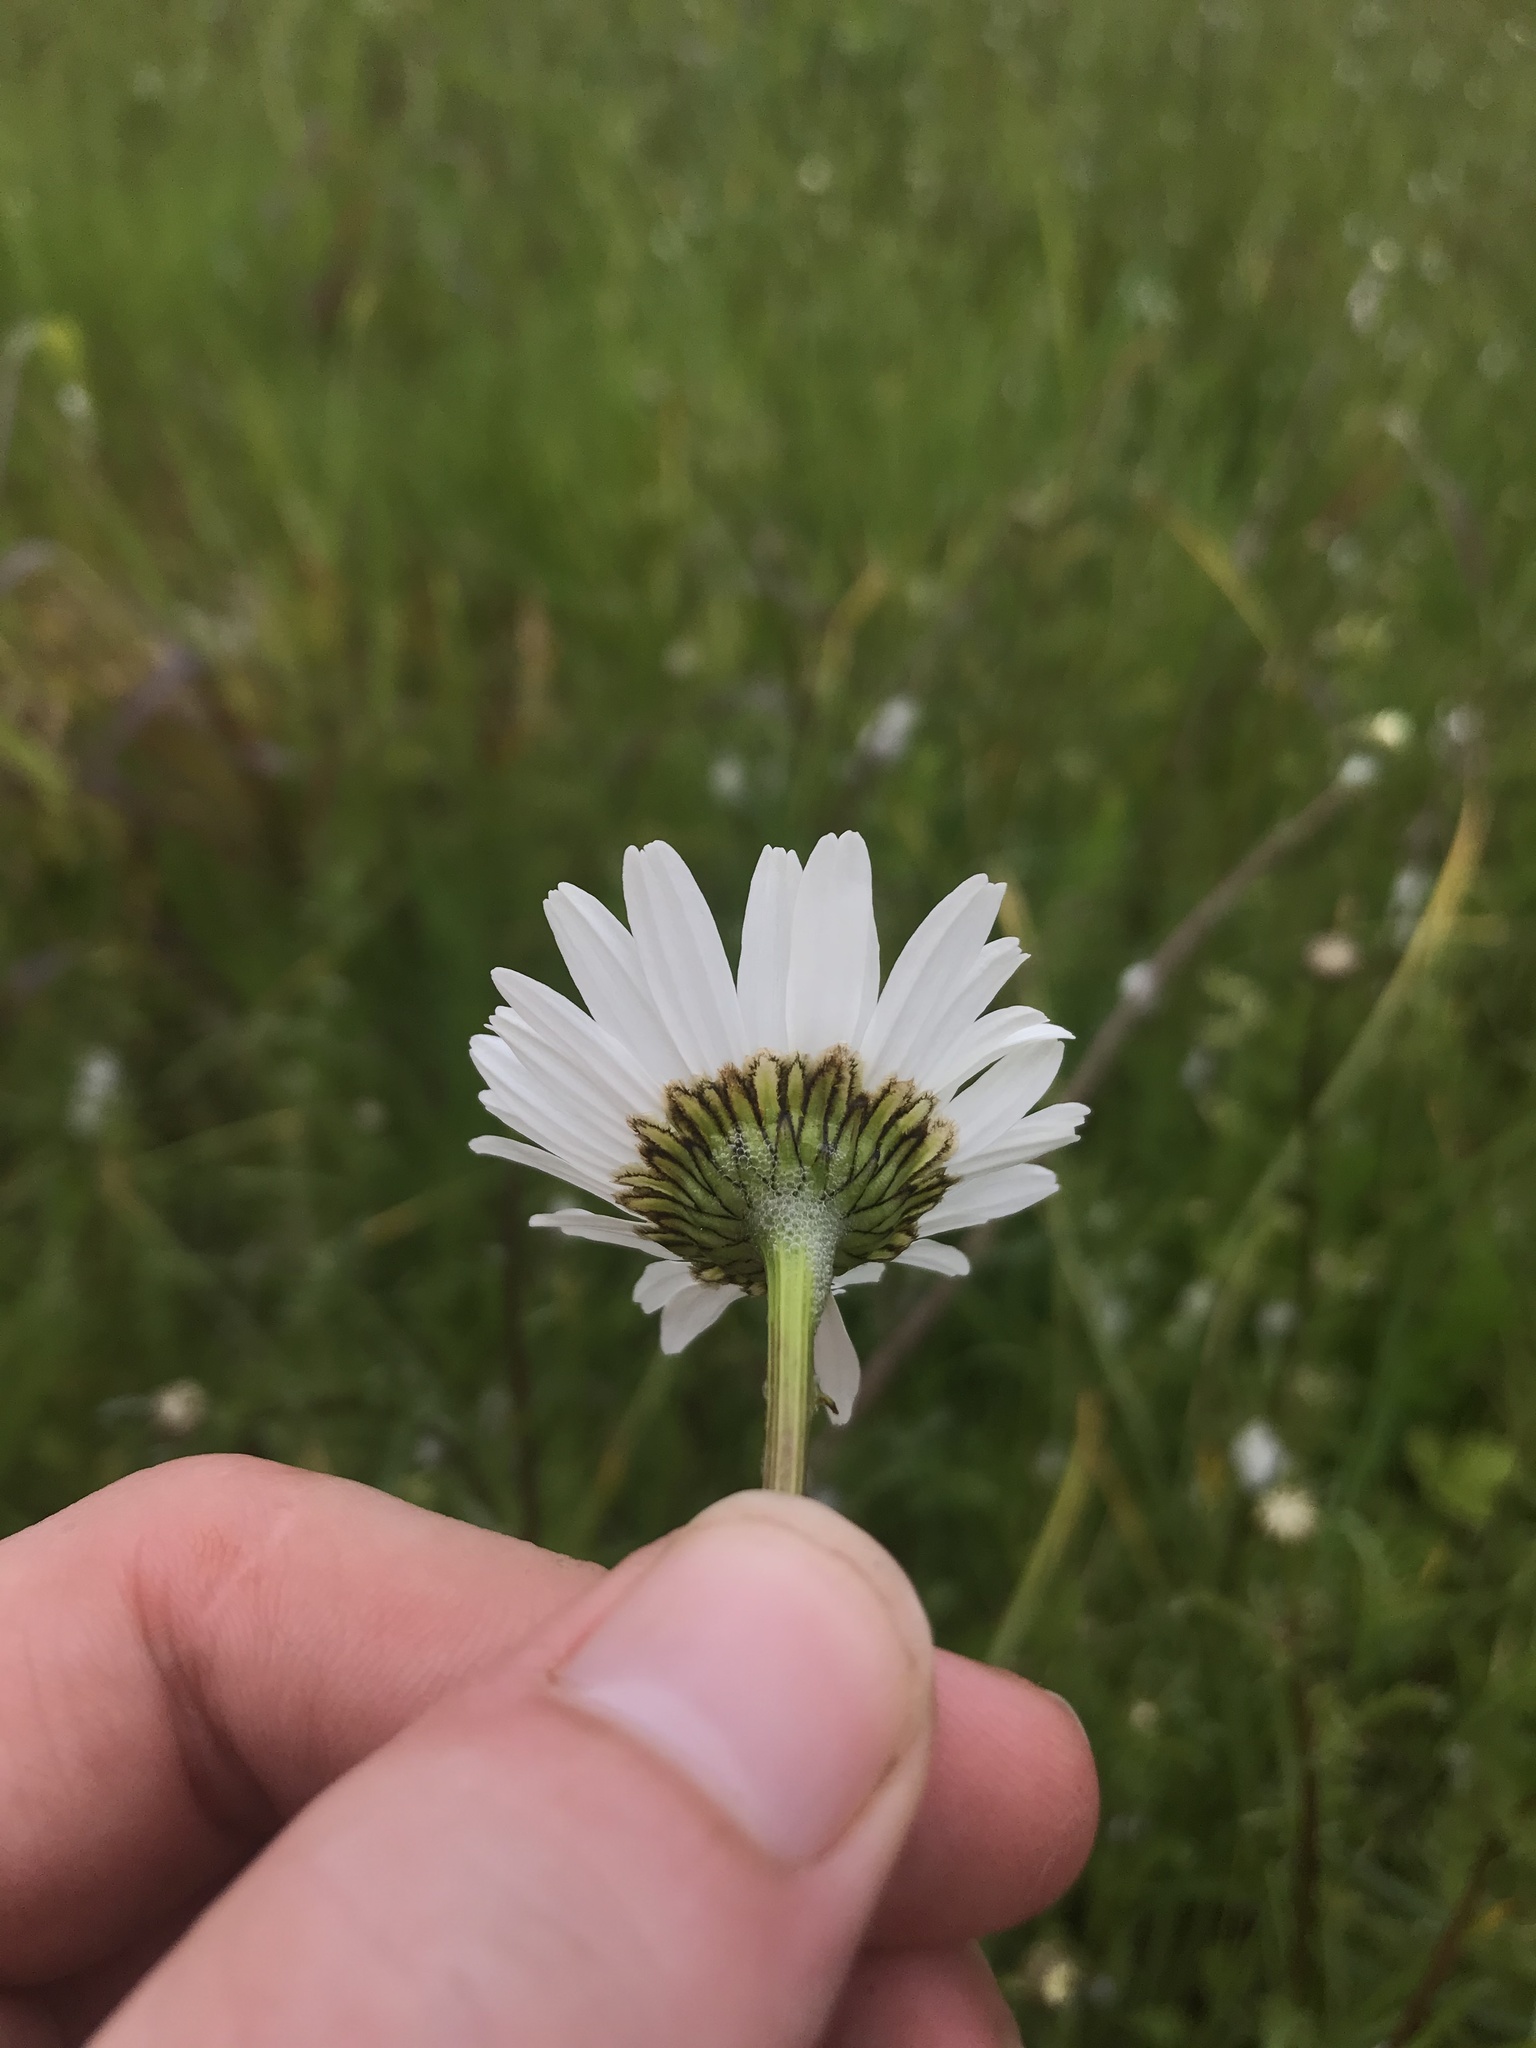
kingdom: Plantae
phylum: Tracheophyta
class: Magnoliopsida
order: Asterales
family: Asteraceae
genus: Leucanthemum
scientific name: Leucanthemum vulgare
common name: Oxeye daisy
